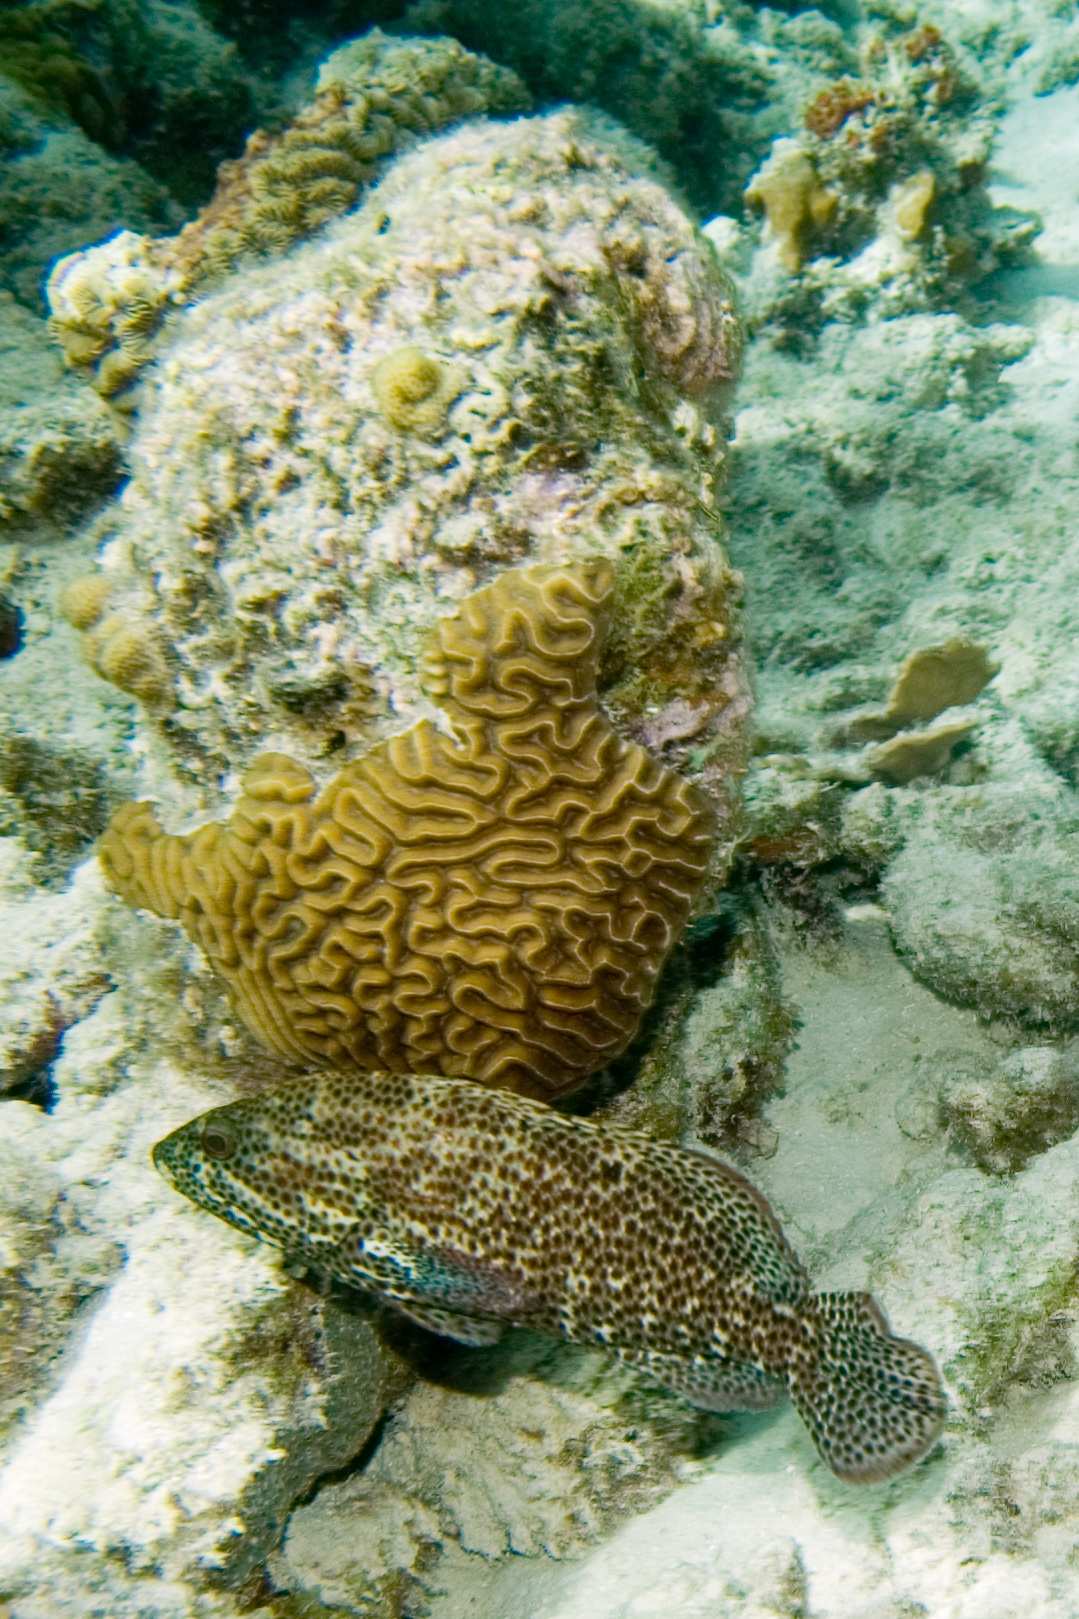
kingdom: Animalia
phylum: Chordata
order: Perciformes
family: Serranidae
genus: Cephalopholis
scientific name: Cephalopholis cruentata
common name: Graysby
